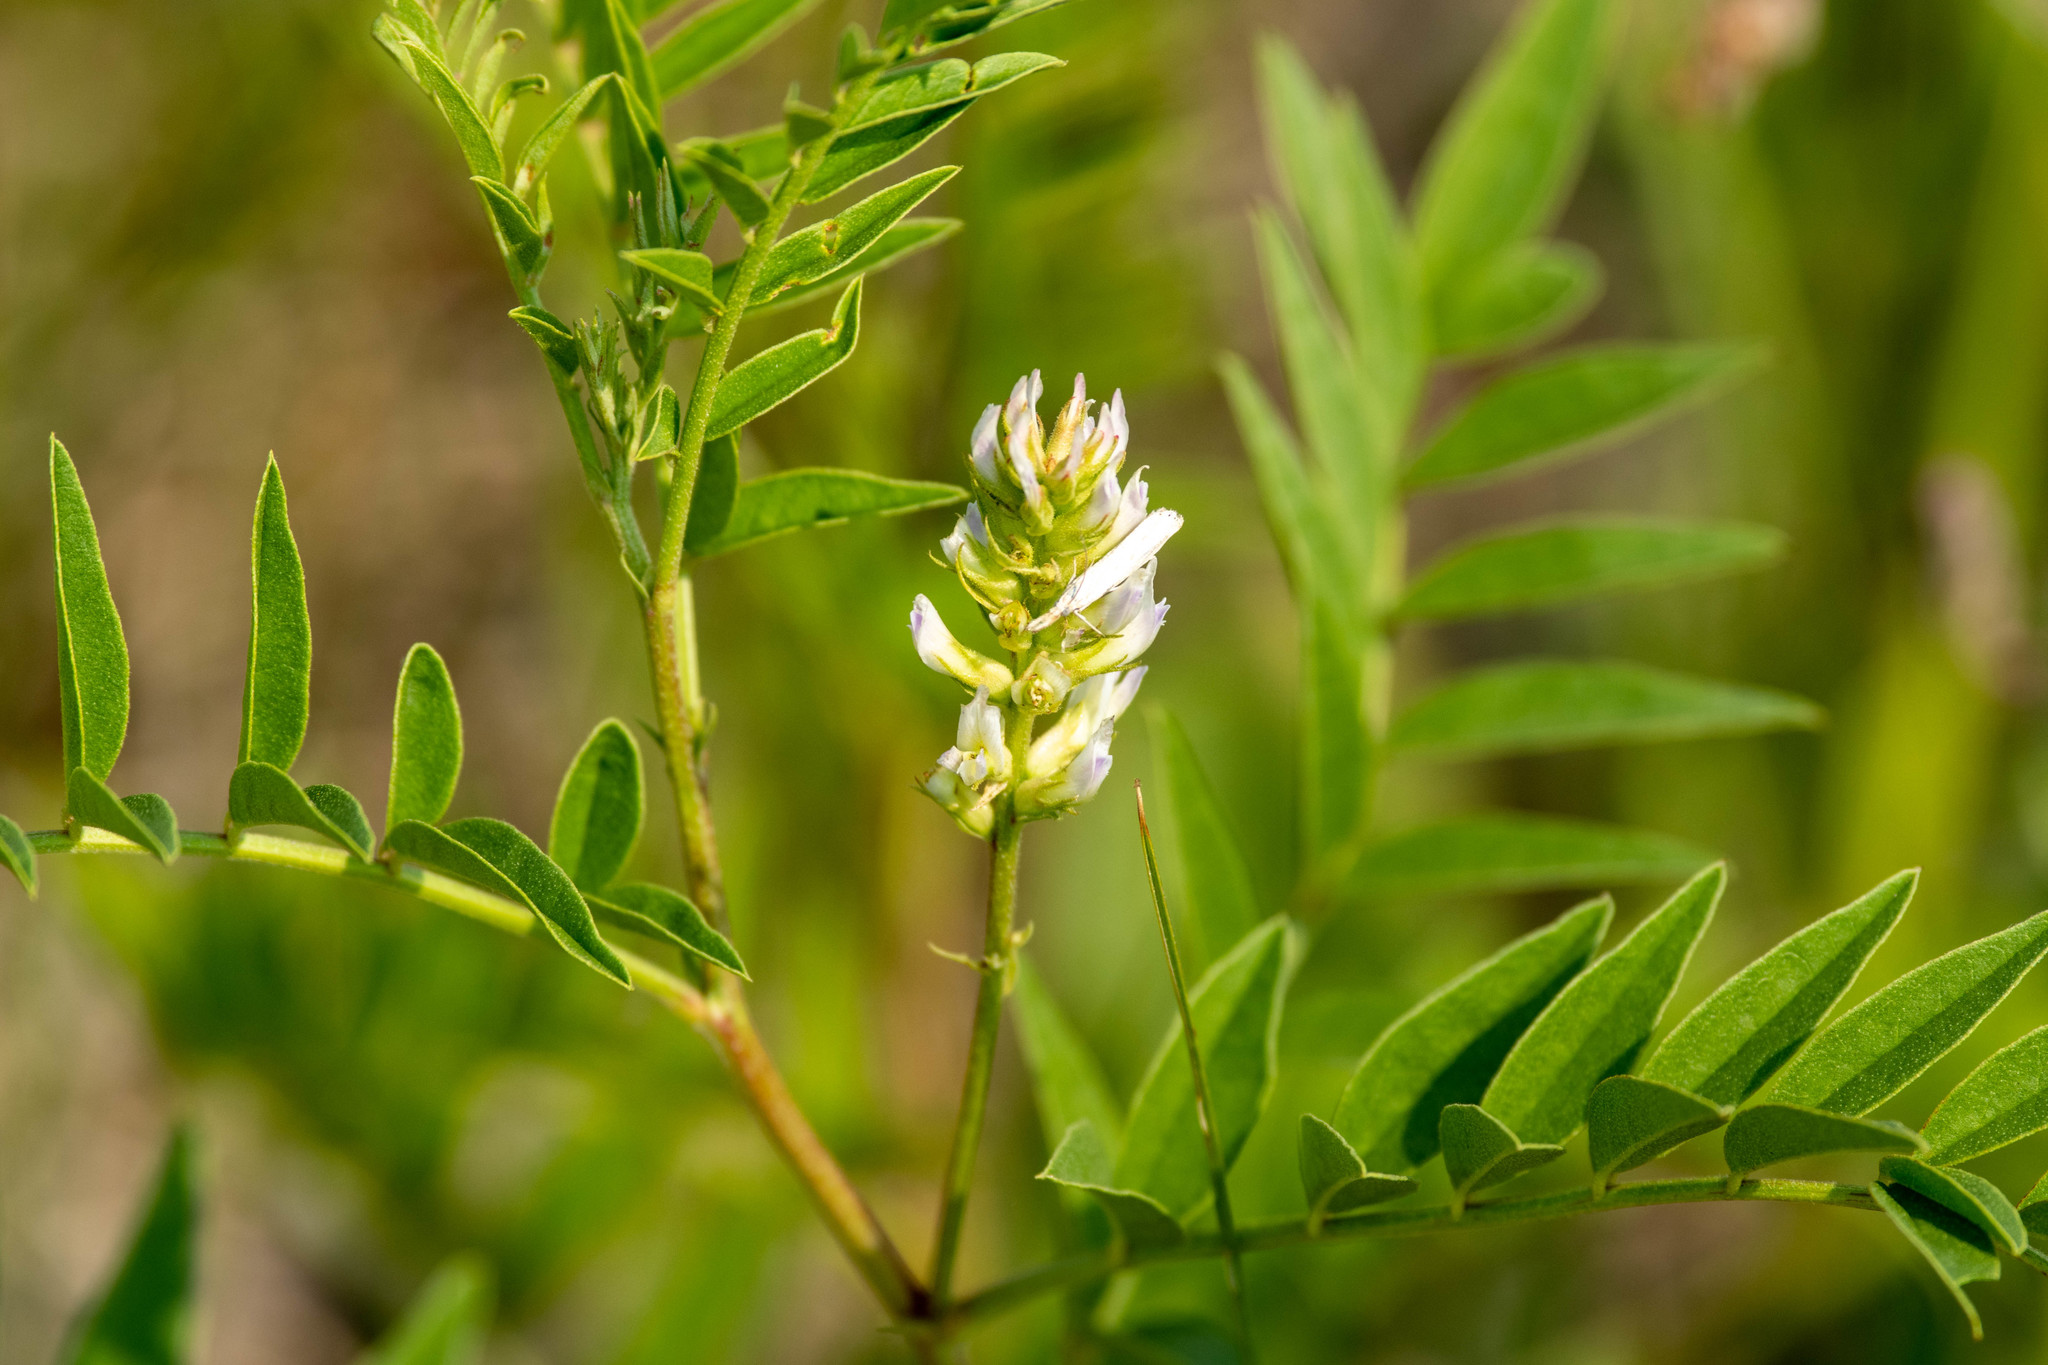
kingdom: Plantae
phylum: Tracheophyta
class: Magnoliopsida
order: Fabales
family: Fabaceae
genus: Glycyrrhiza
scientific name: Glycyrrhiza lepidota
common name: American liquorice
